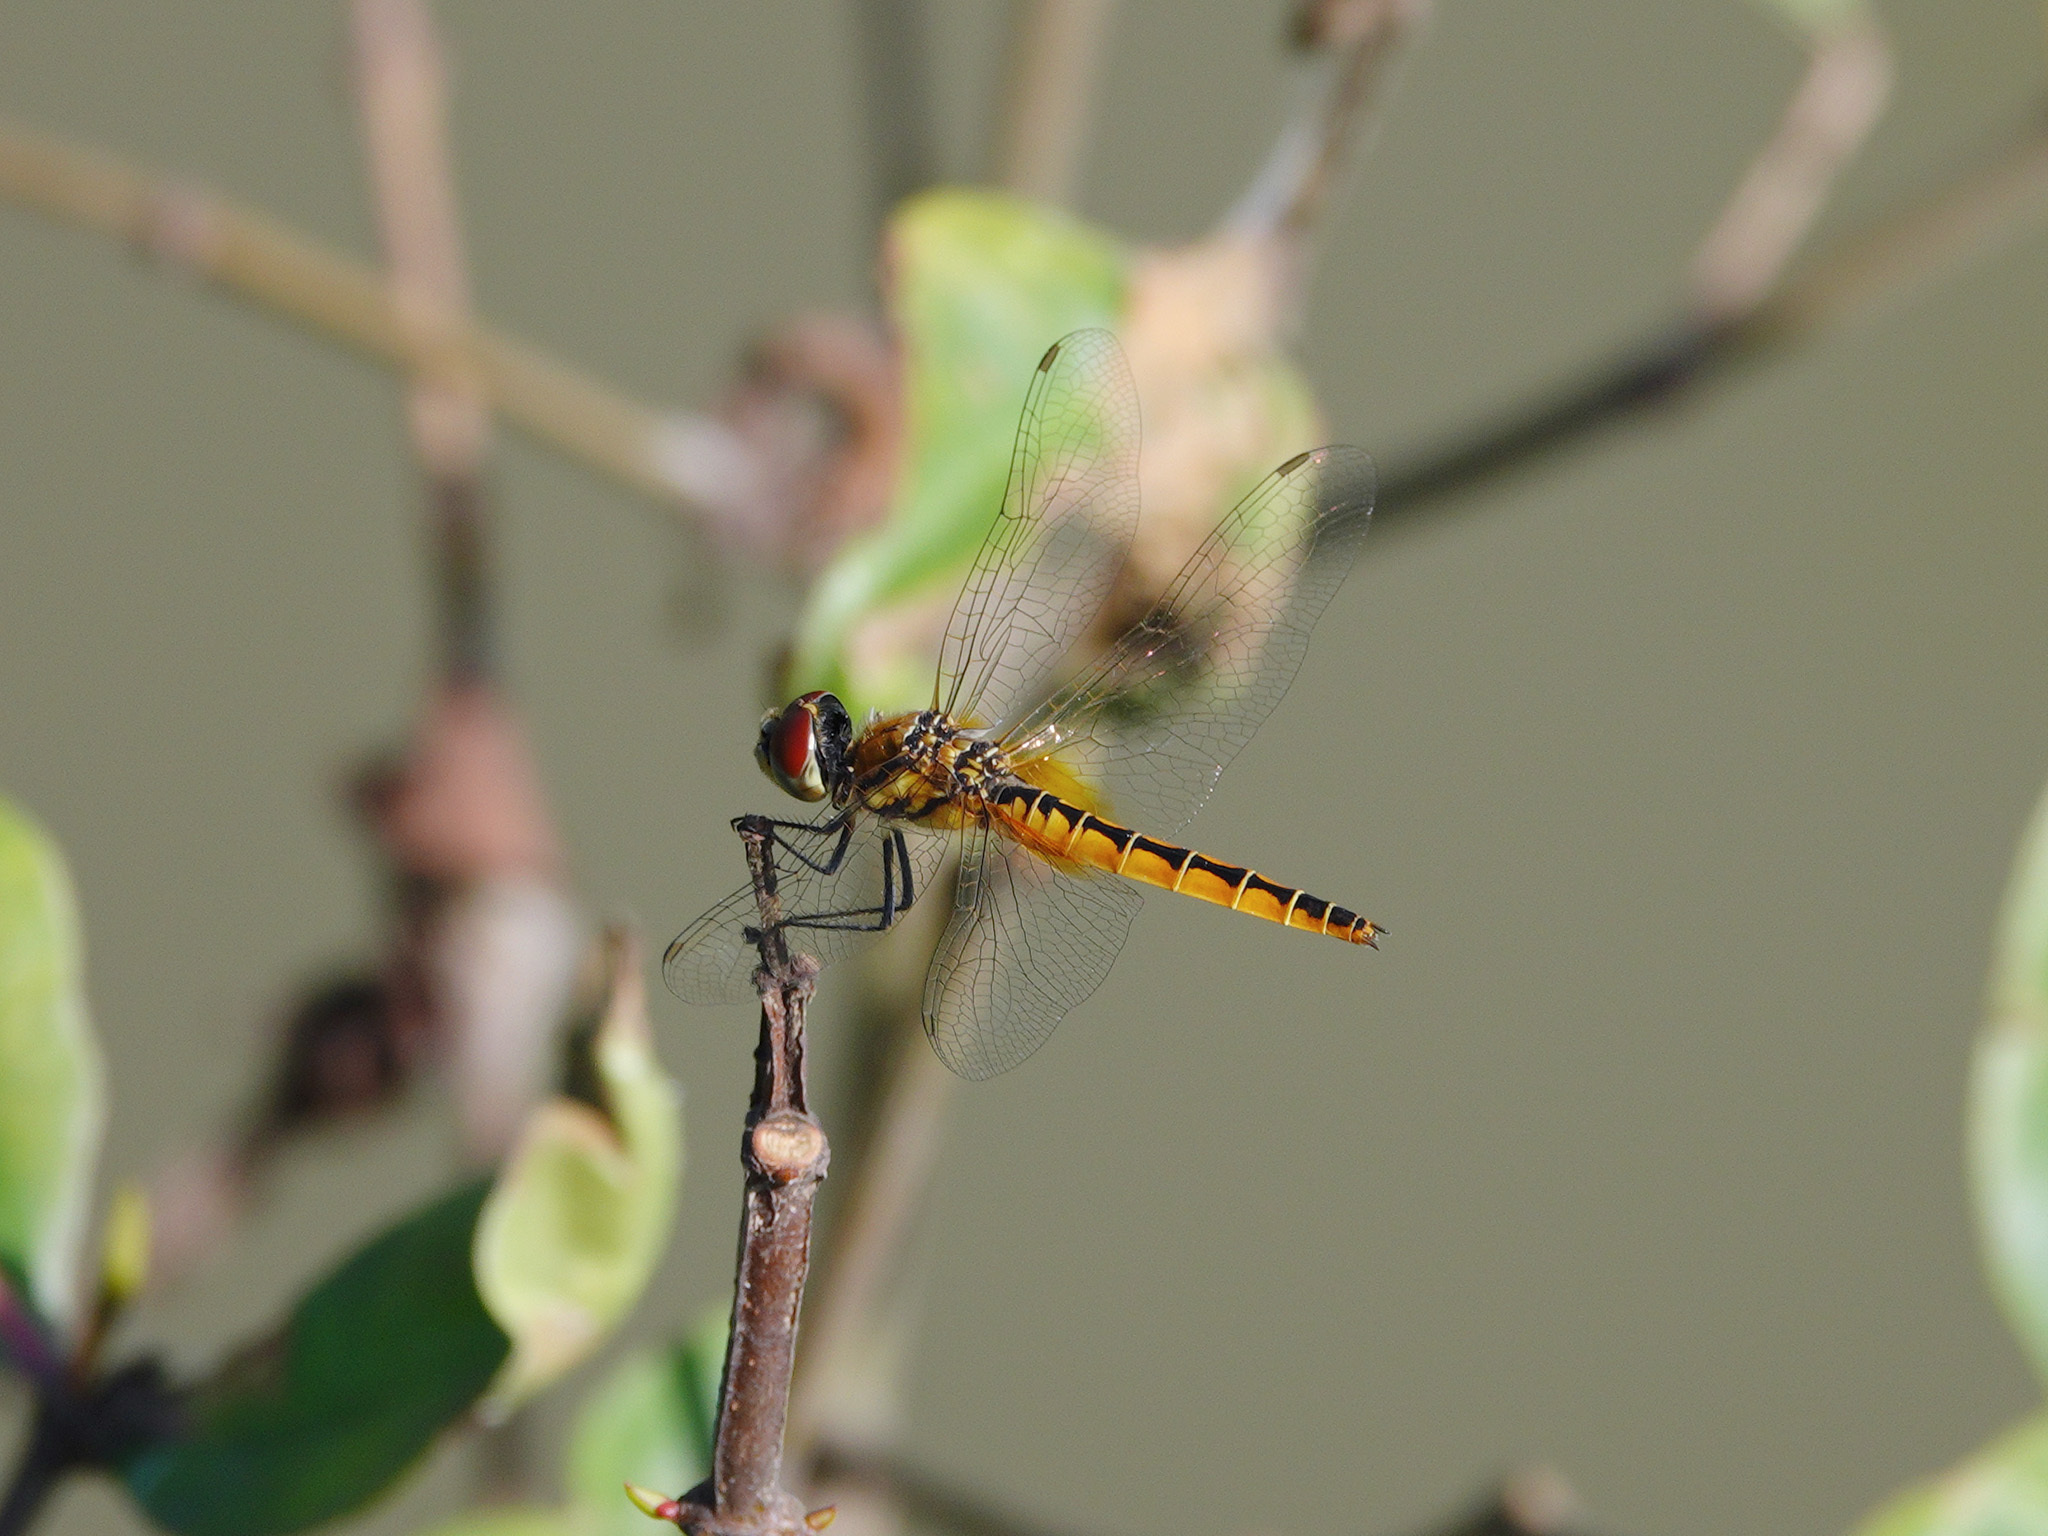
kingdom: Animalia
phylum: Arthropoda
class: Insecta
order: Odonata
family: Libellulidae
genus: Macrodiplax
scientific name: Macrodiplax cora
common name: Coastal glider
